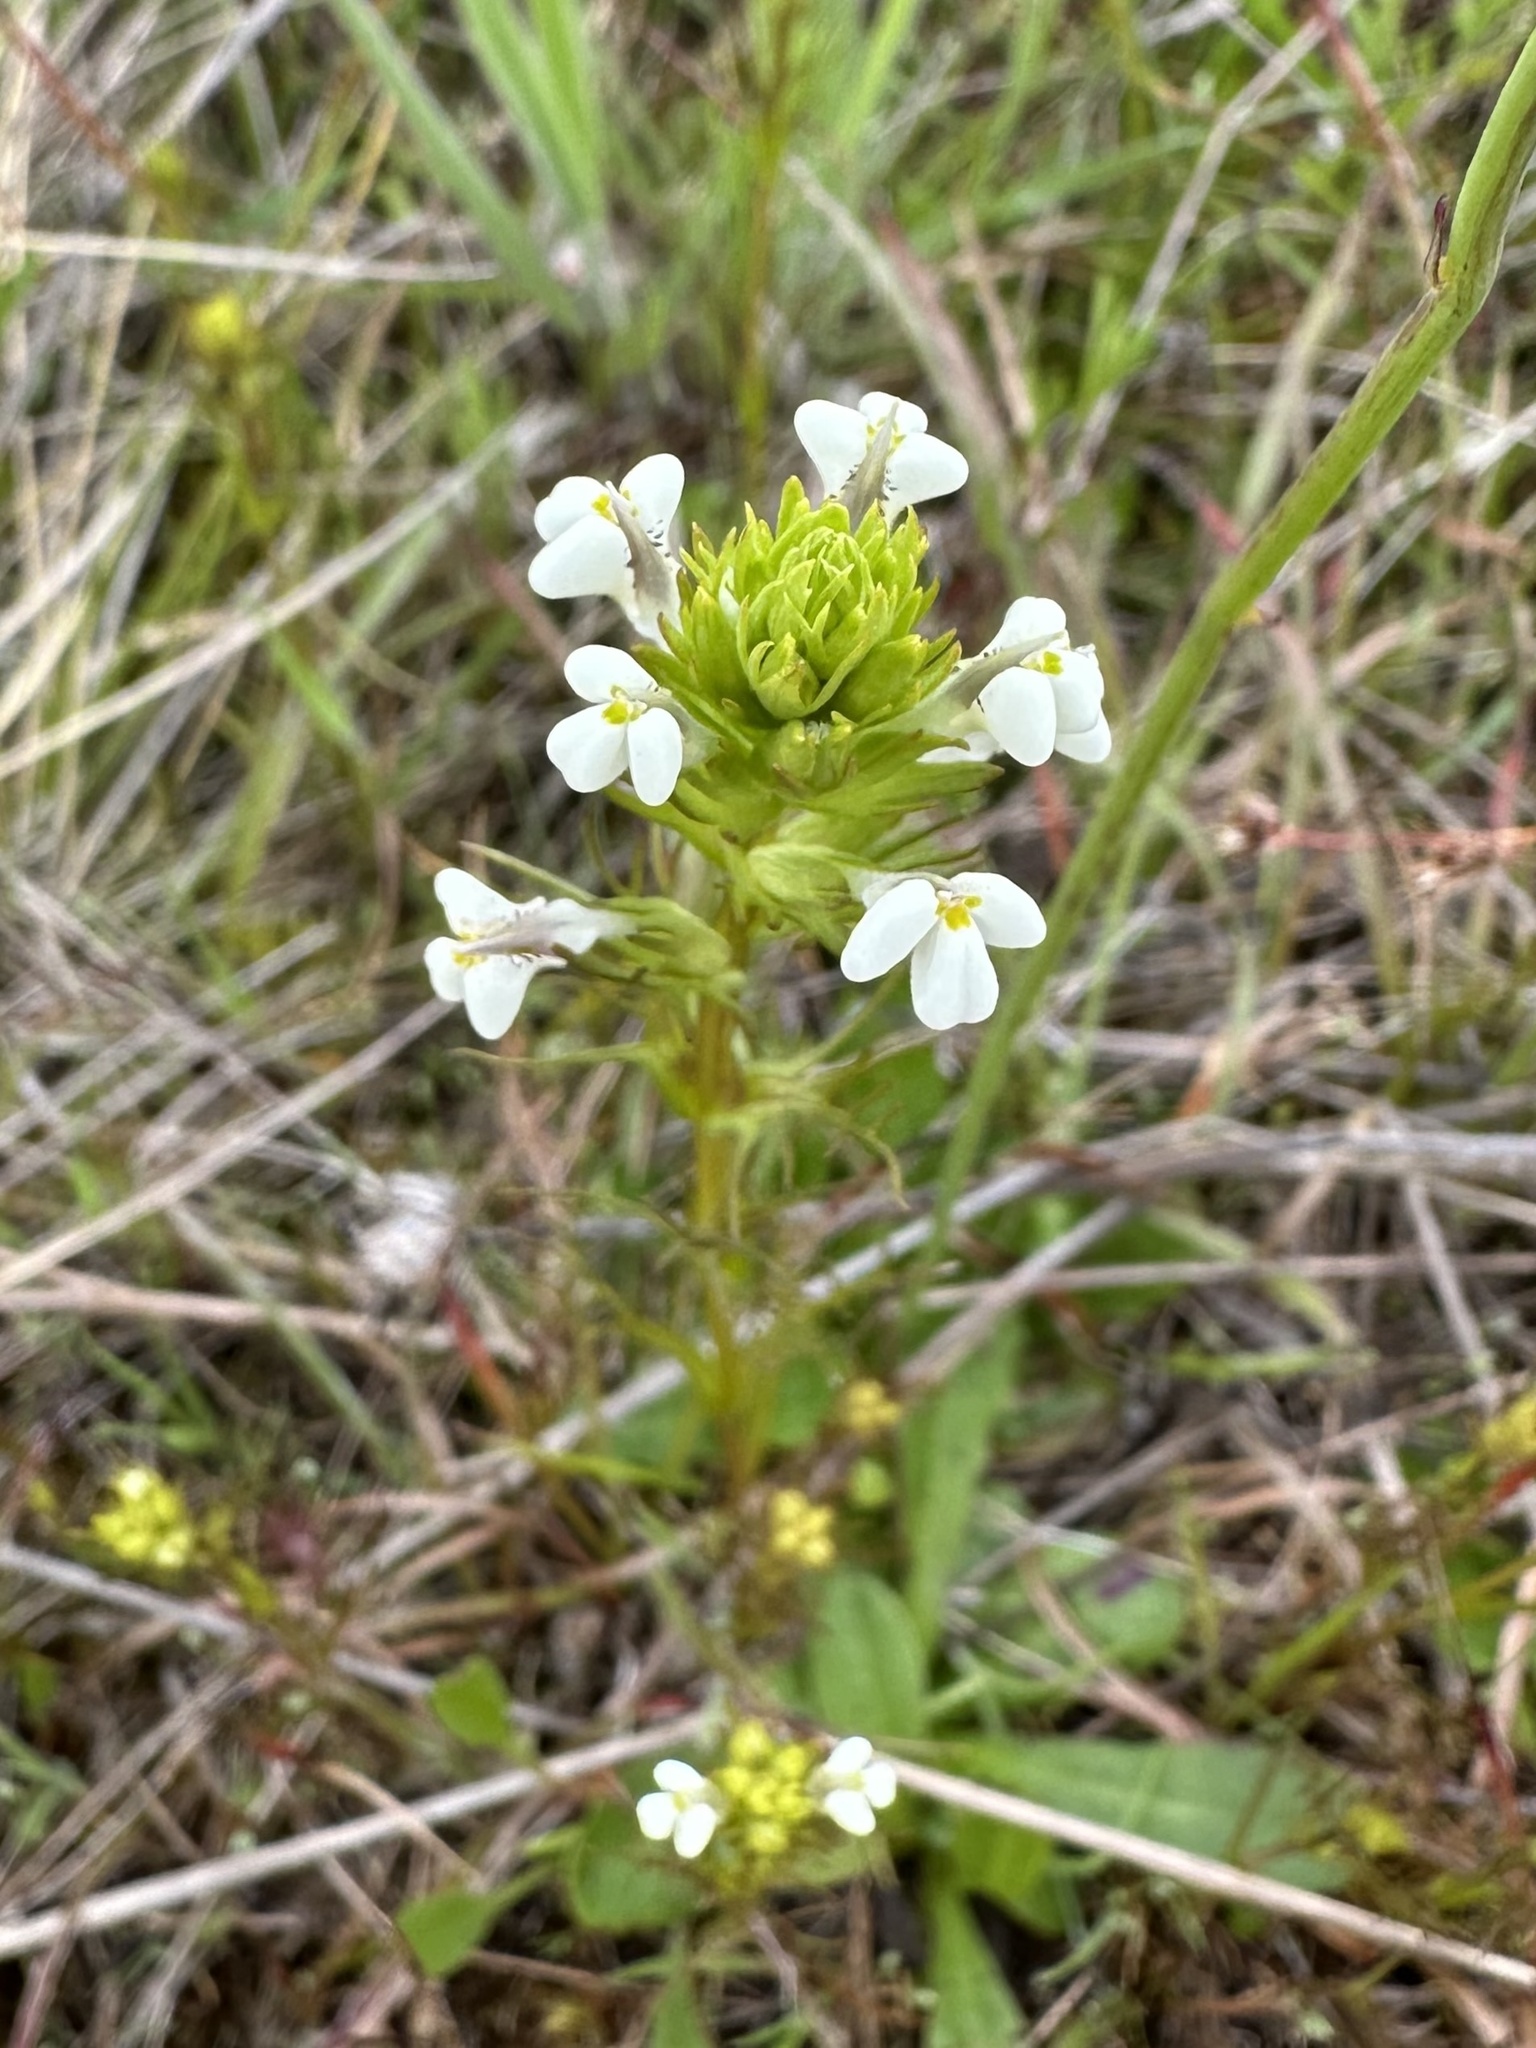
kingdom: Plantae
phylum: Tracheophyta
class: Magnoliopsida
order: Lamiales
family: Orobanchaceae
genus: Triphysaria
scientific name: Triphysaria versicolor
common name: Bearded false owl-clover
